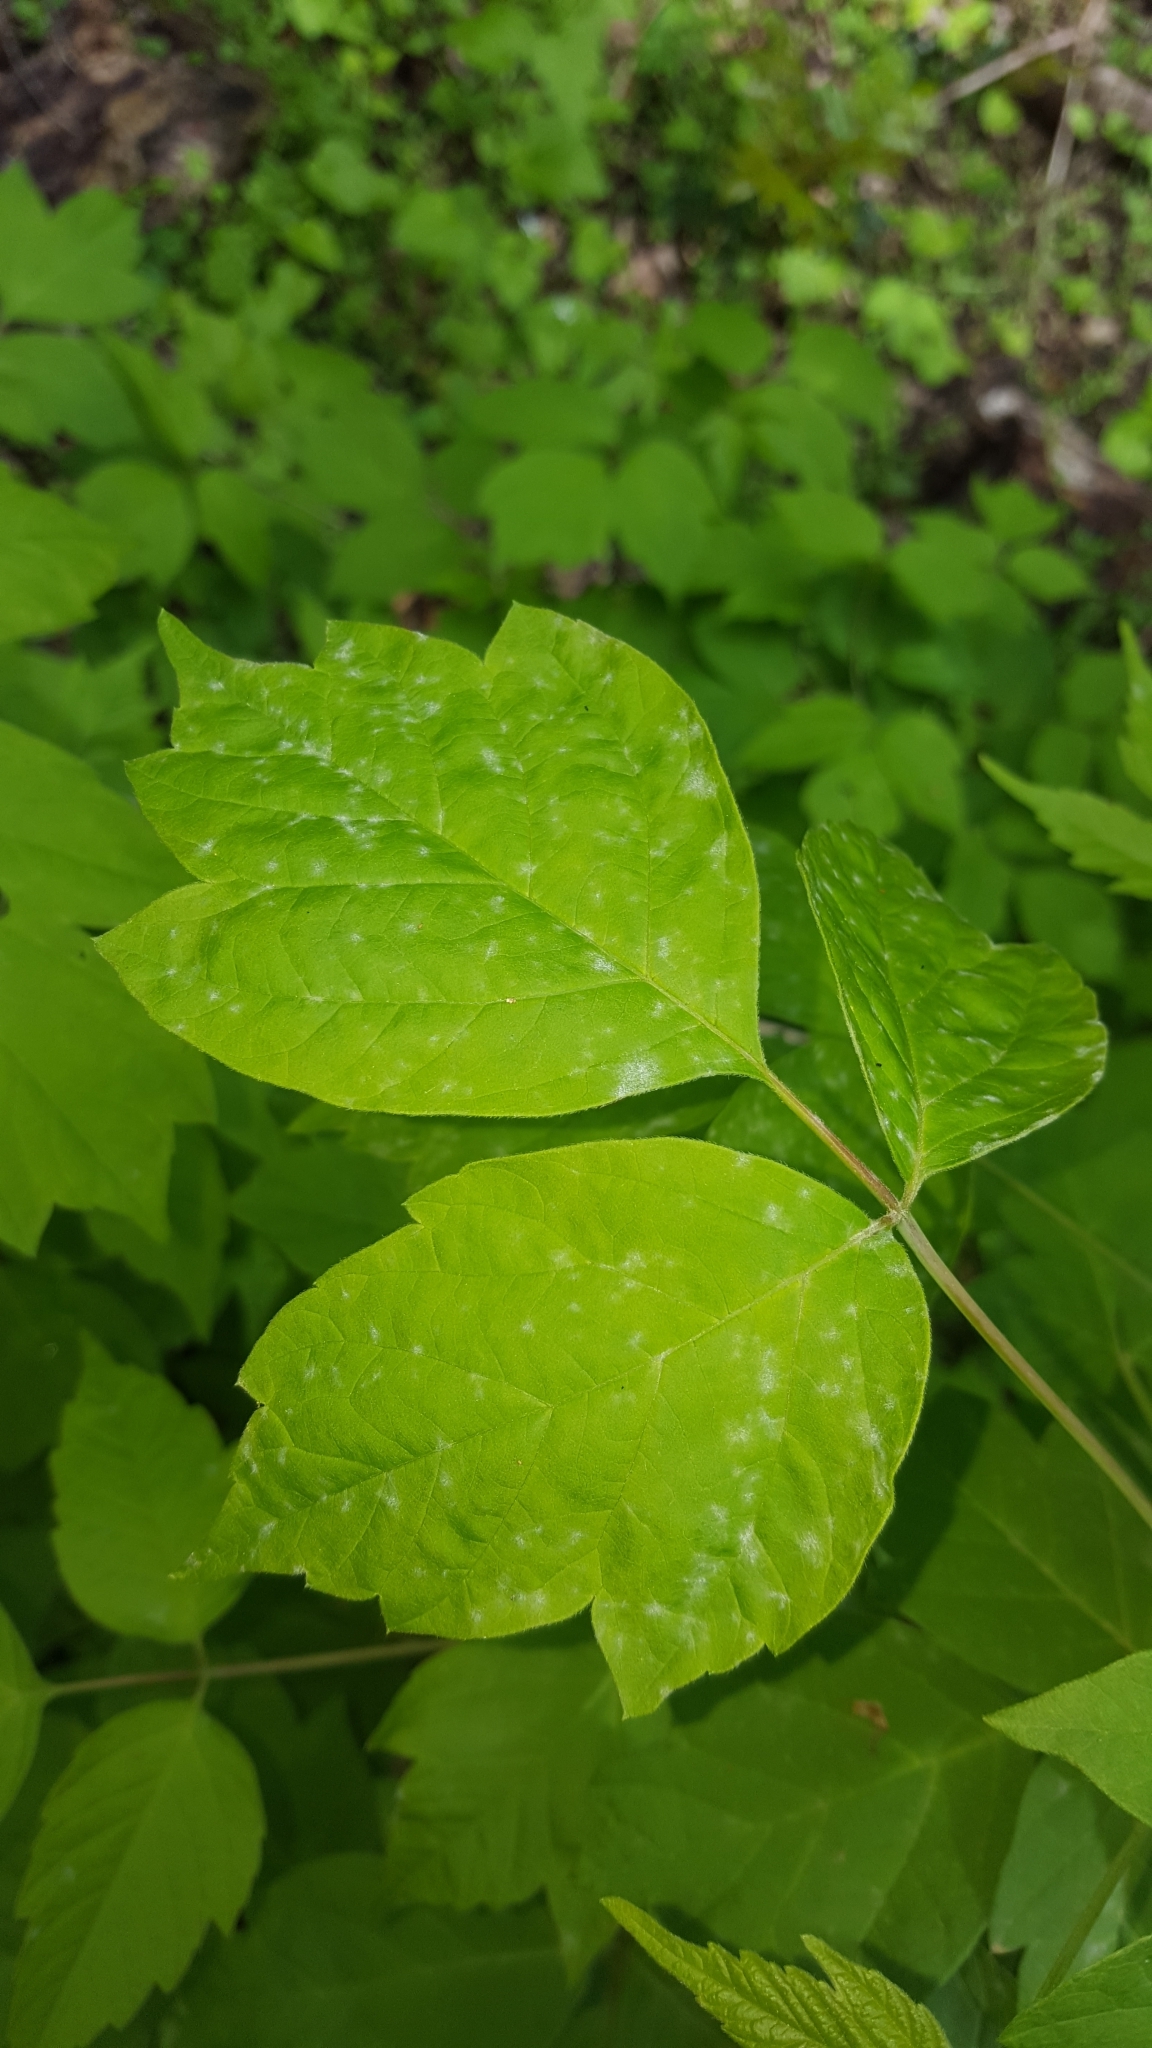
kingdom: Plantae
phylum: Tracheophyta
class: Magnoliopsida
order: Sapindales
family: Sapindaceae
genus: Acer
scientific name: Acer negundo
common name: Ashleaf maple
